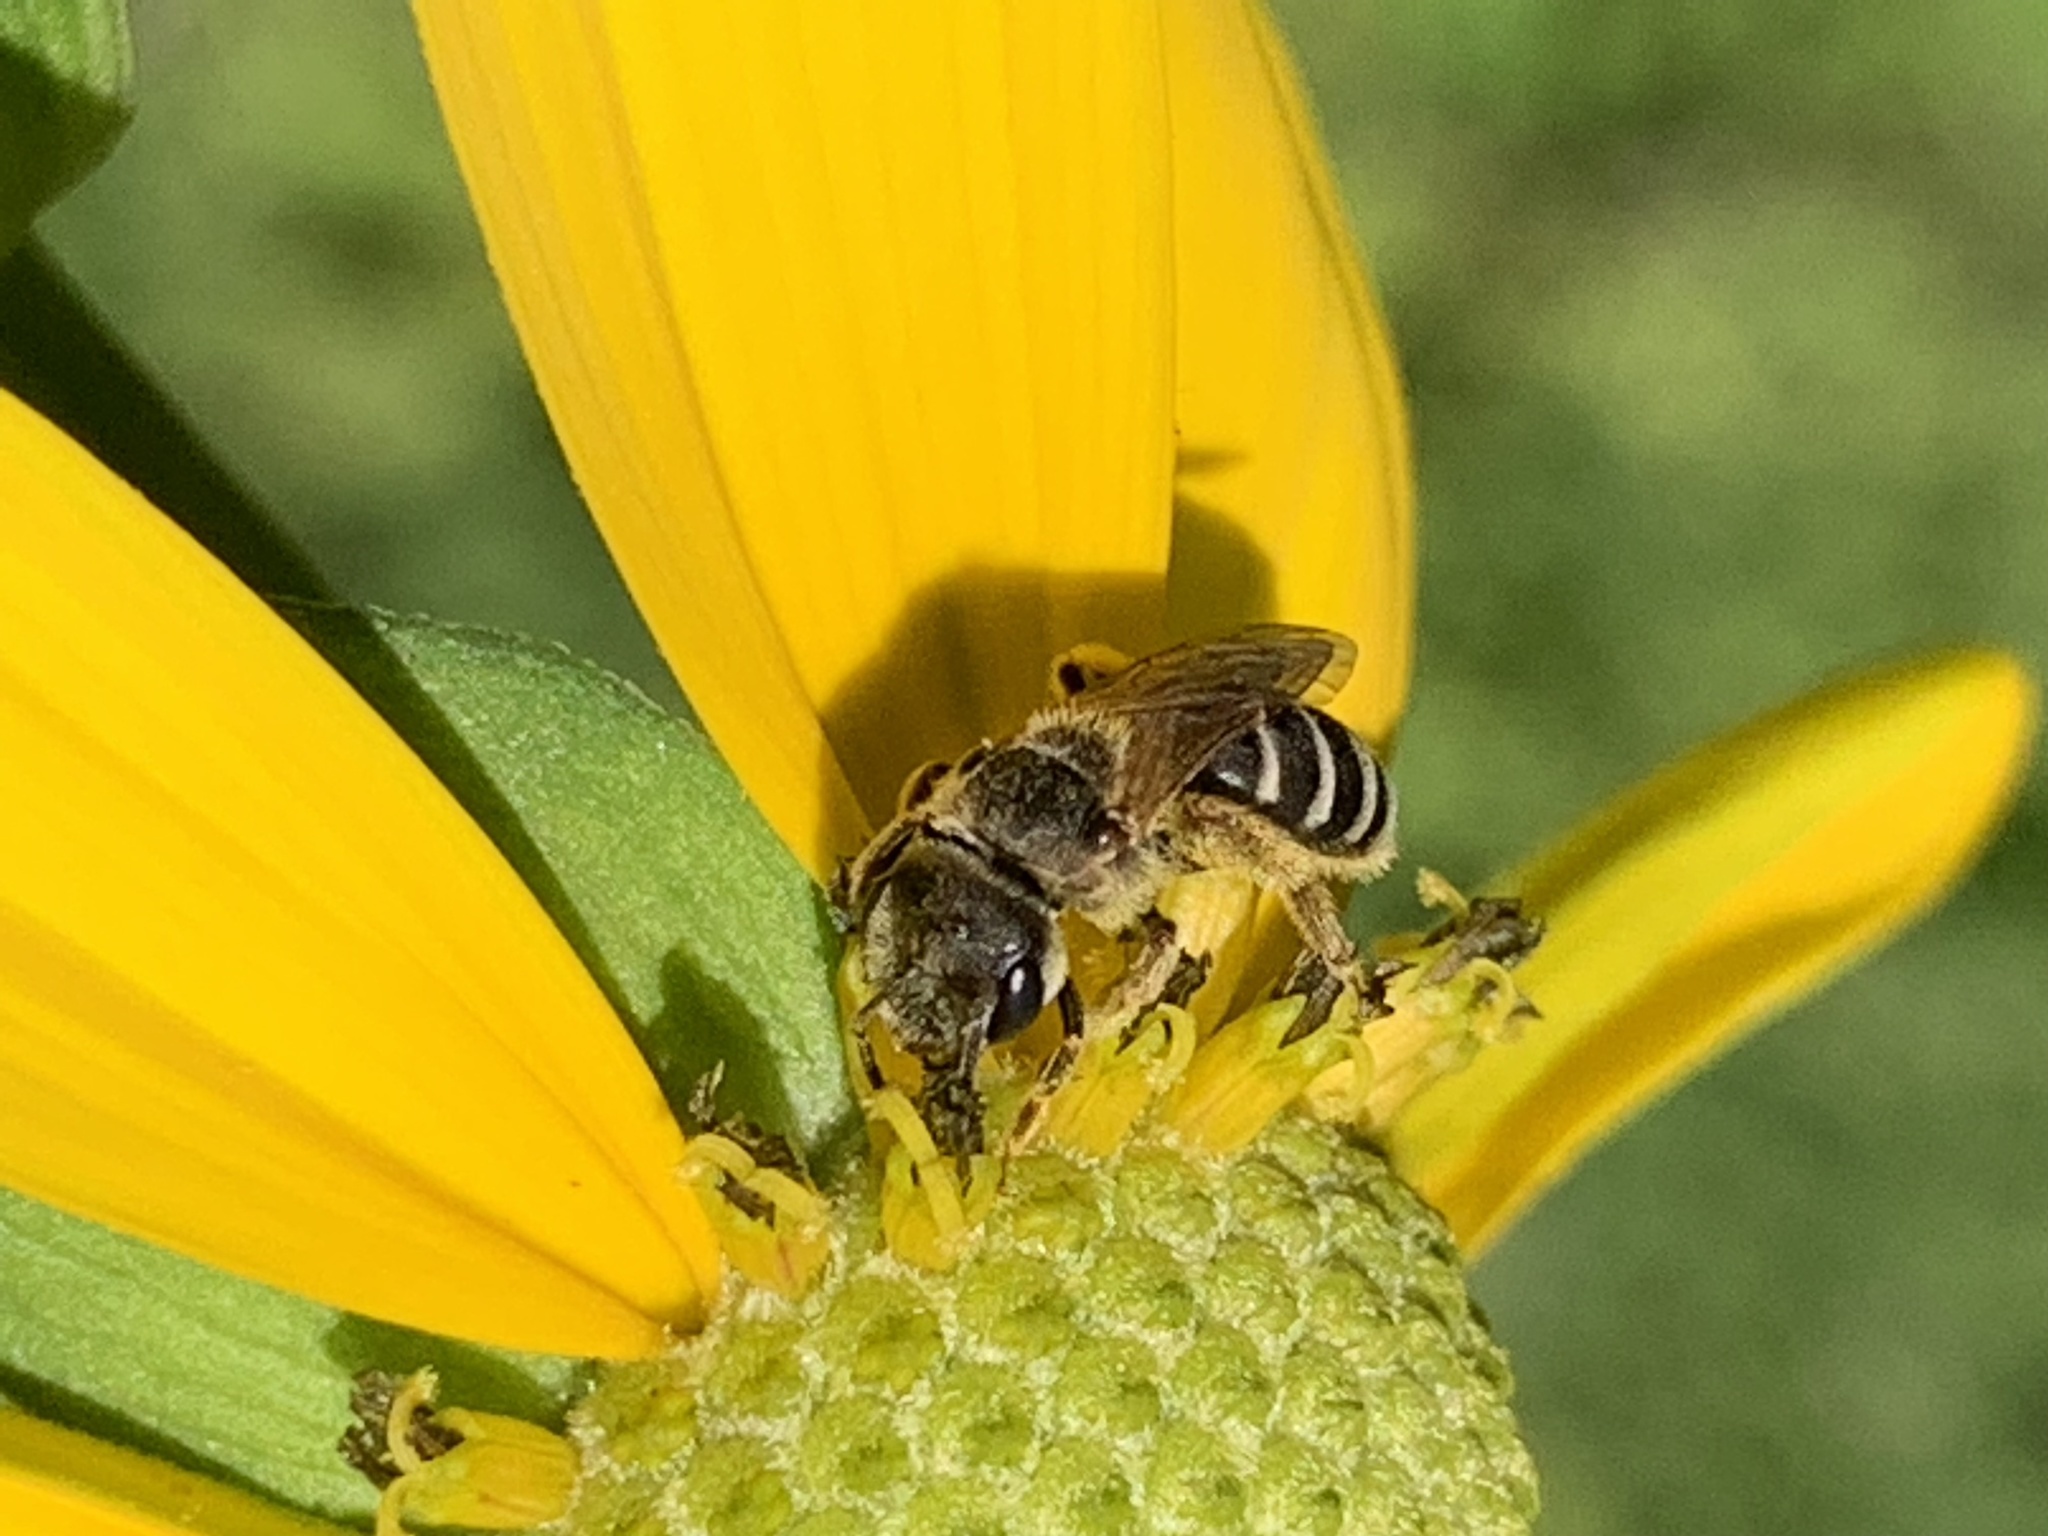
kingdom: Animalia
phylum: Arthropoda
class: Insecta
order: Hymenoptera
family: Halictidae
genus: Halictus
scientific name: Halictus ligatus
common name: Ligated furrow bee
